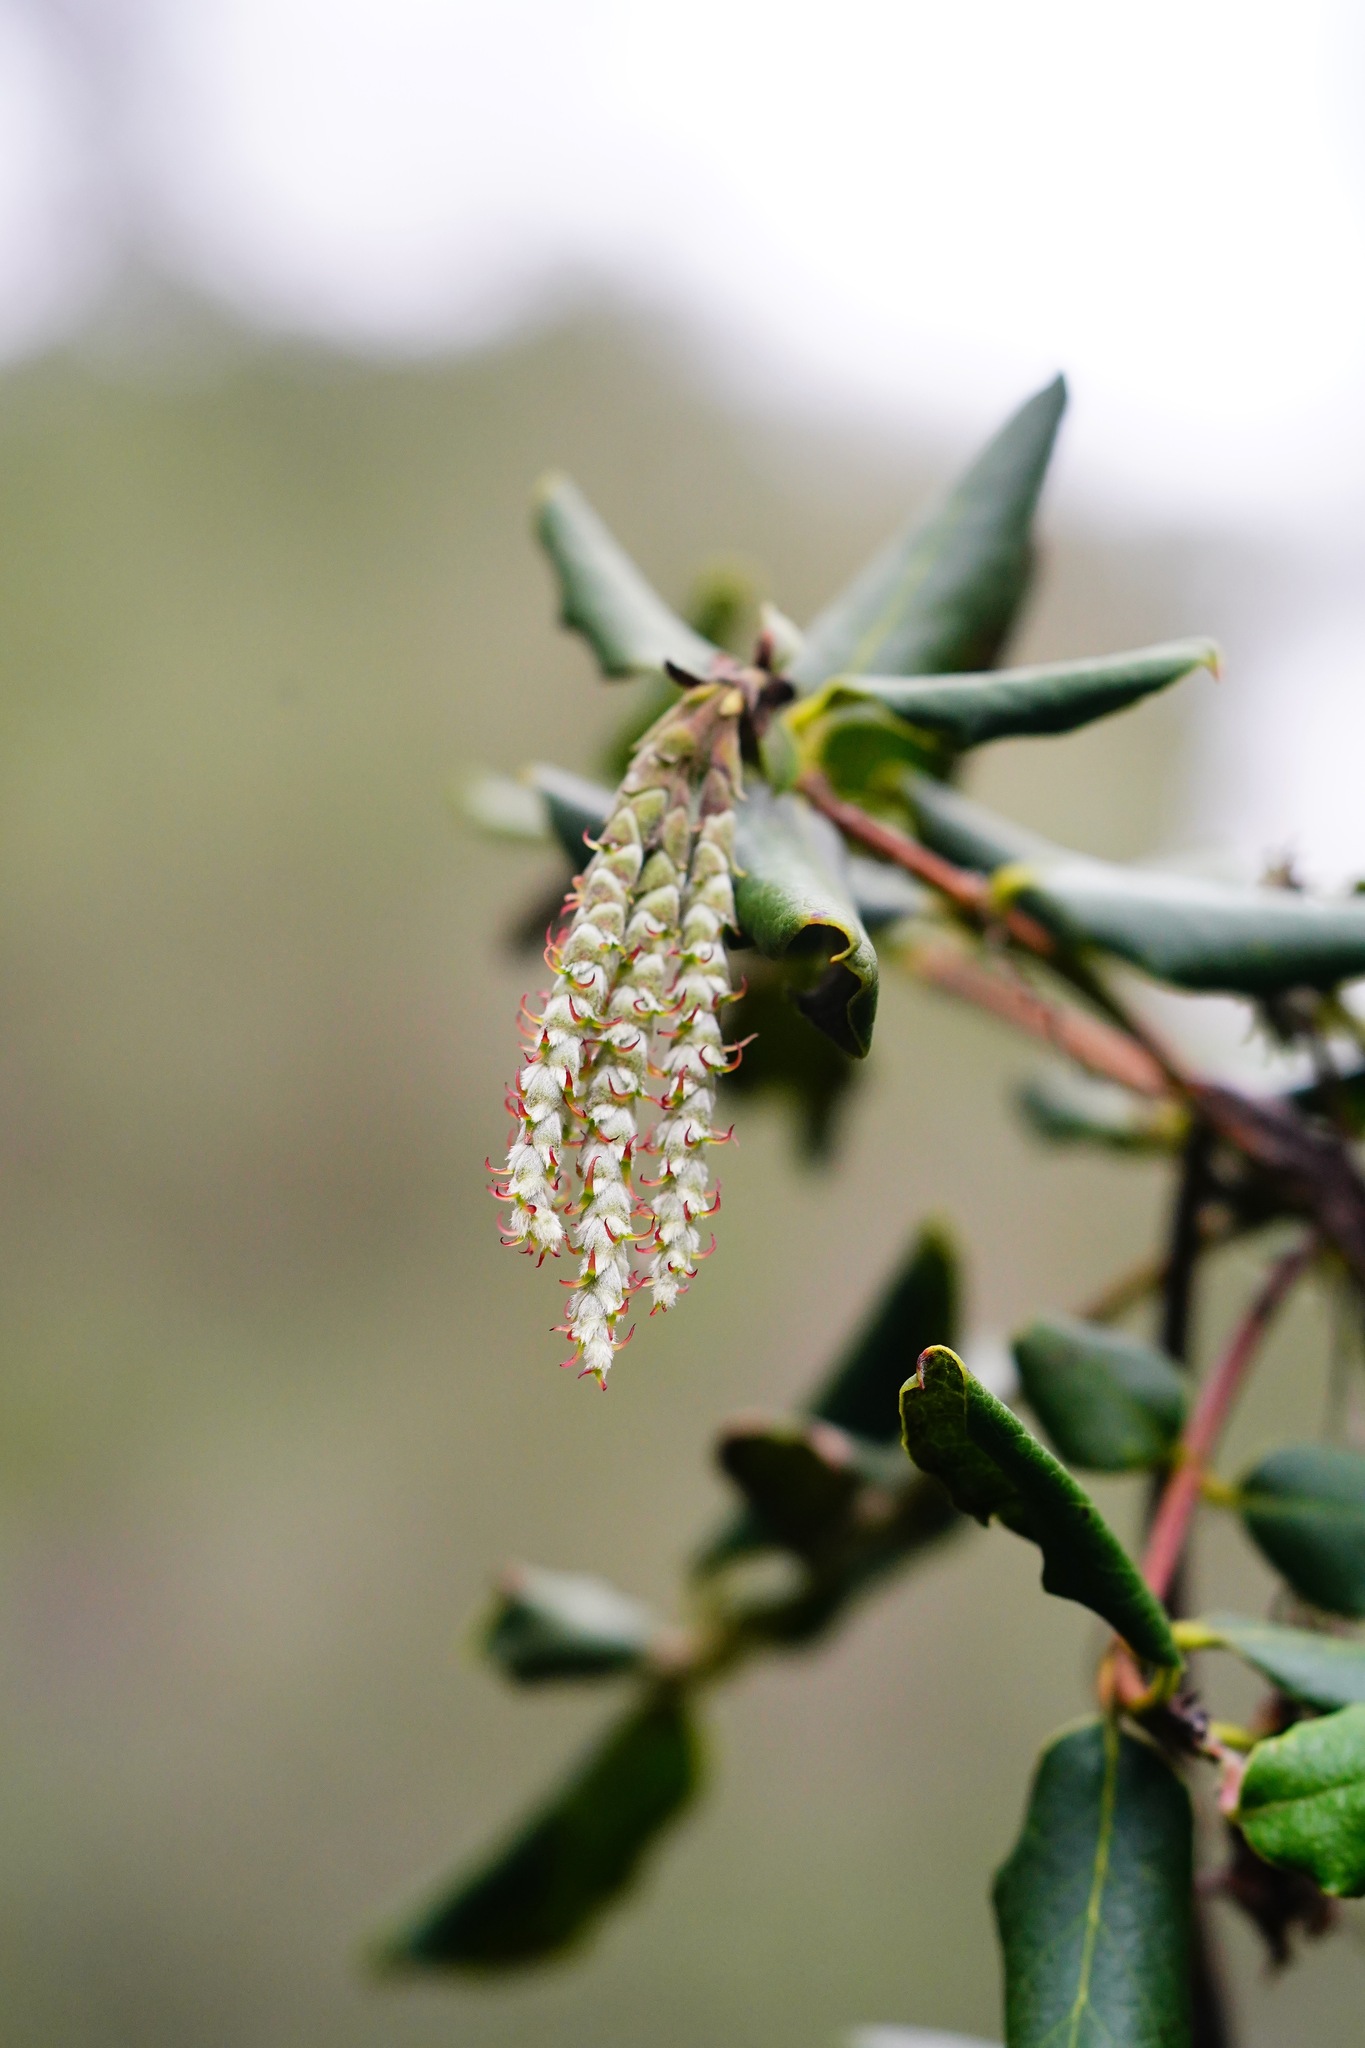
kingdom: Plantae
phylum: Tracheophyta
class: Magnoliopsida
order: Garryales
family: Garryaceae
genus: Garrya
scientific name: Garrya elliptica
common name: Silk-tassel
